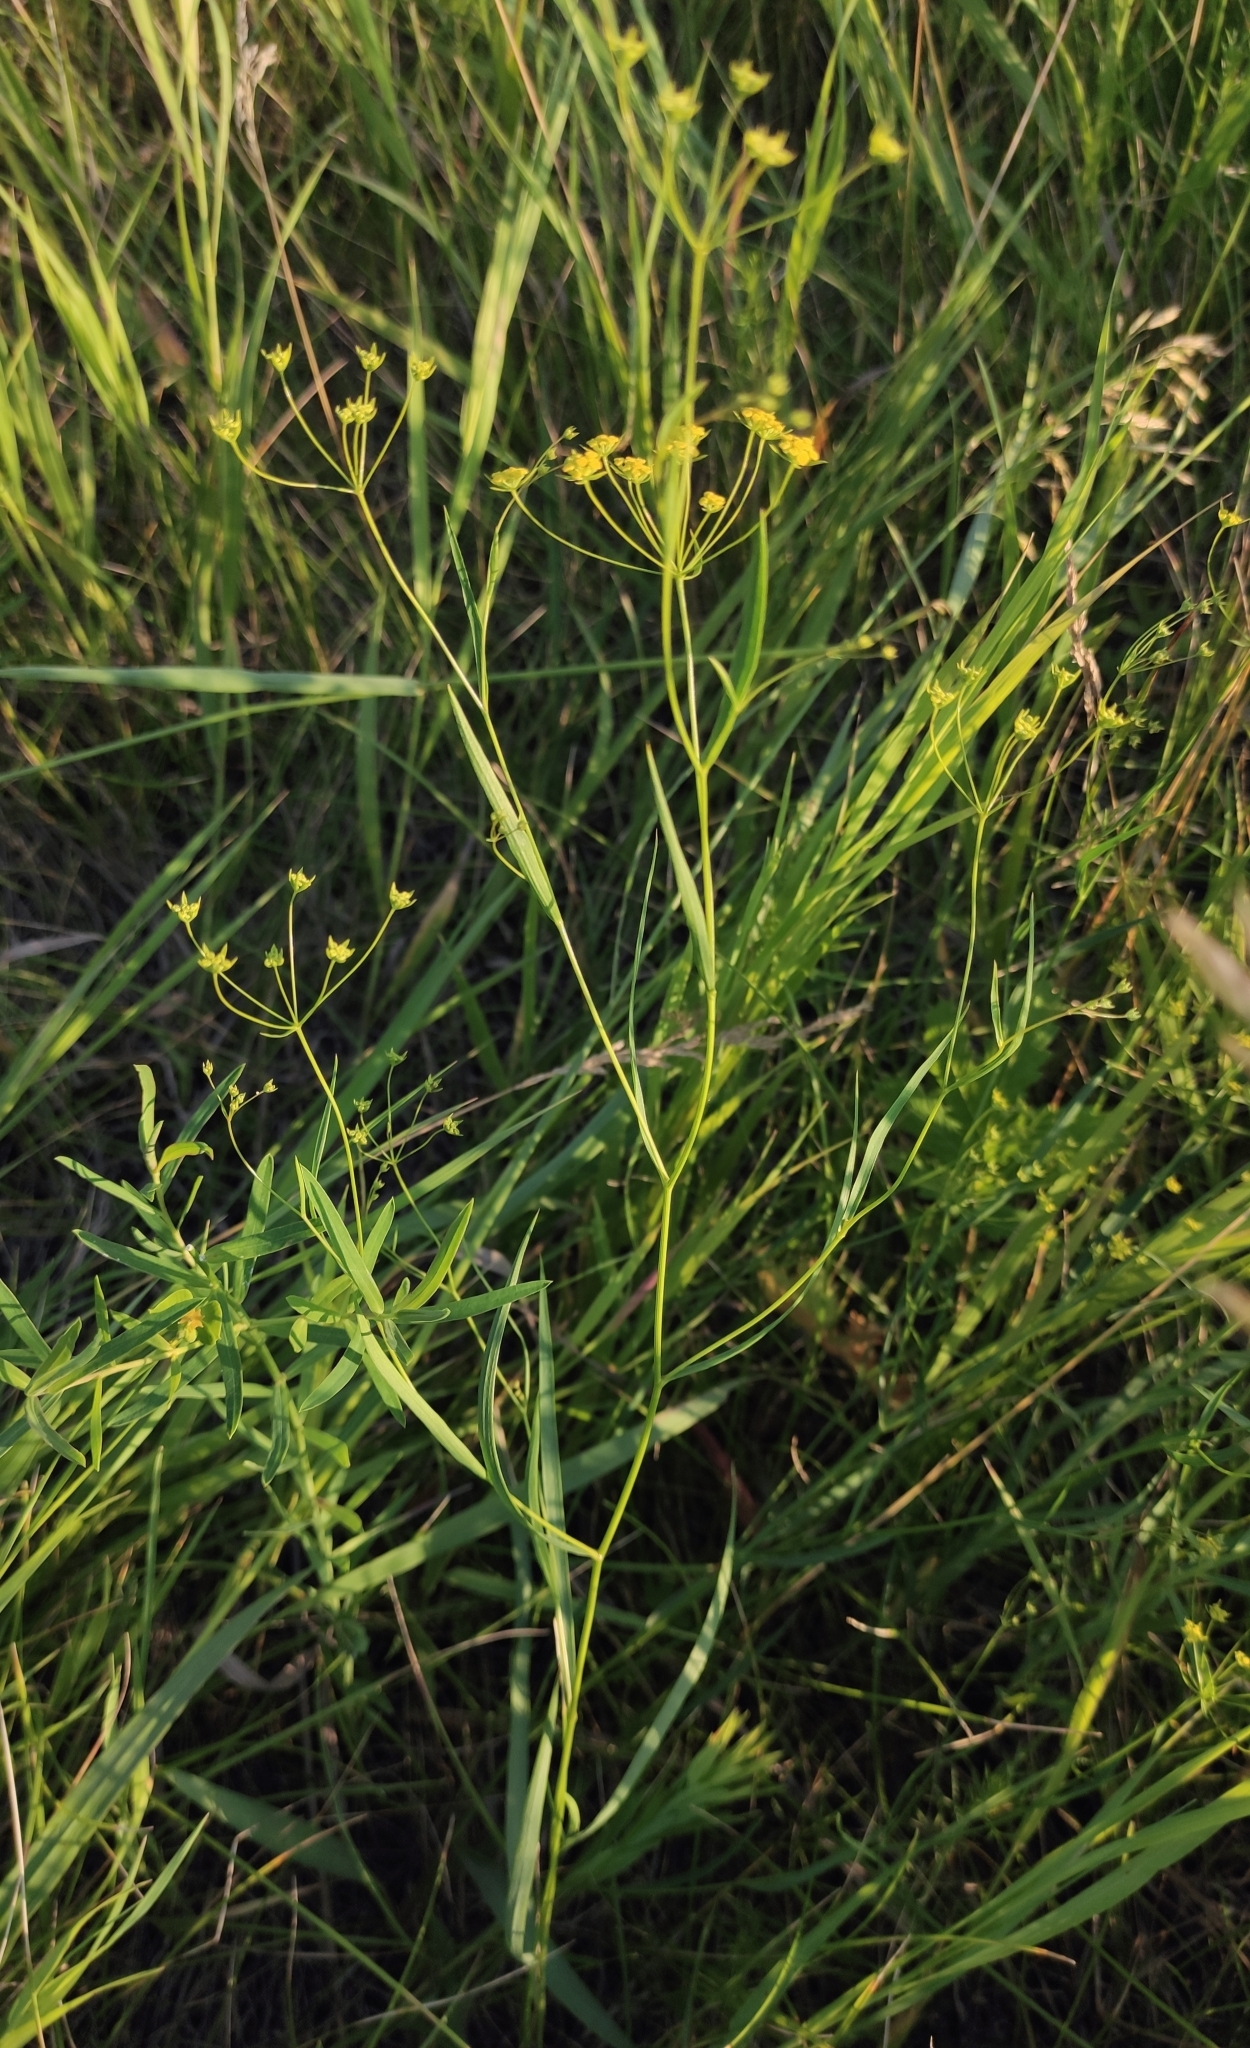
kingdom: Plantae
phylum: Tracheophyta
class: Magnoliopsida
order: Apiales
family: Apiaceae
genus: Bupleurum
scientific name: Bupleurum scorzonerifolium
